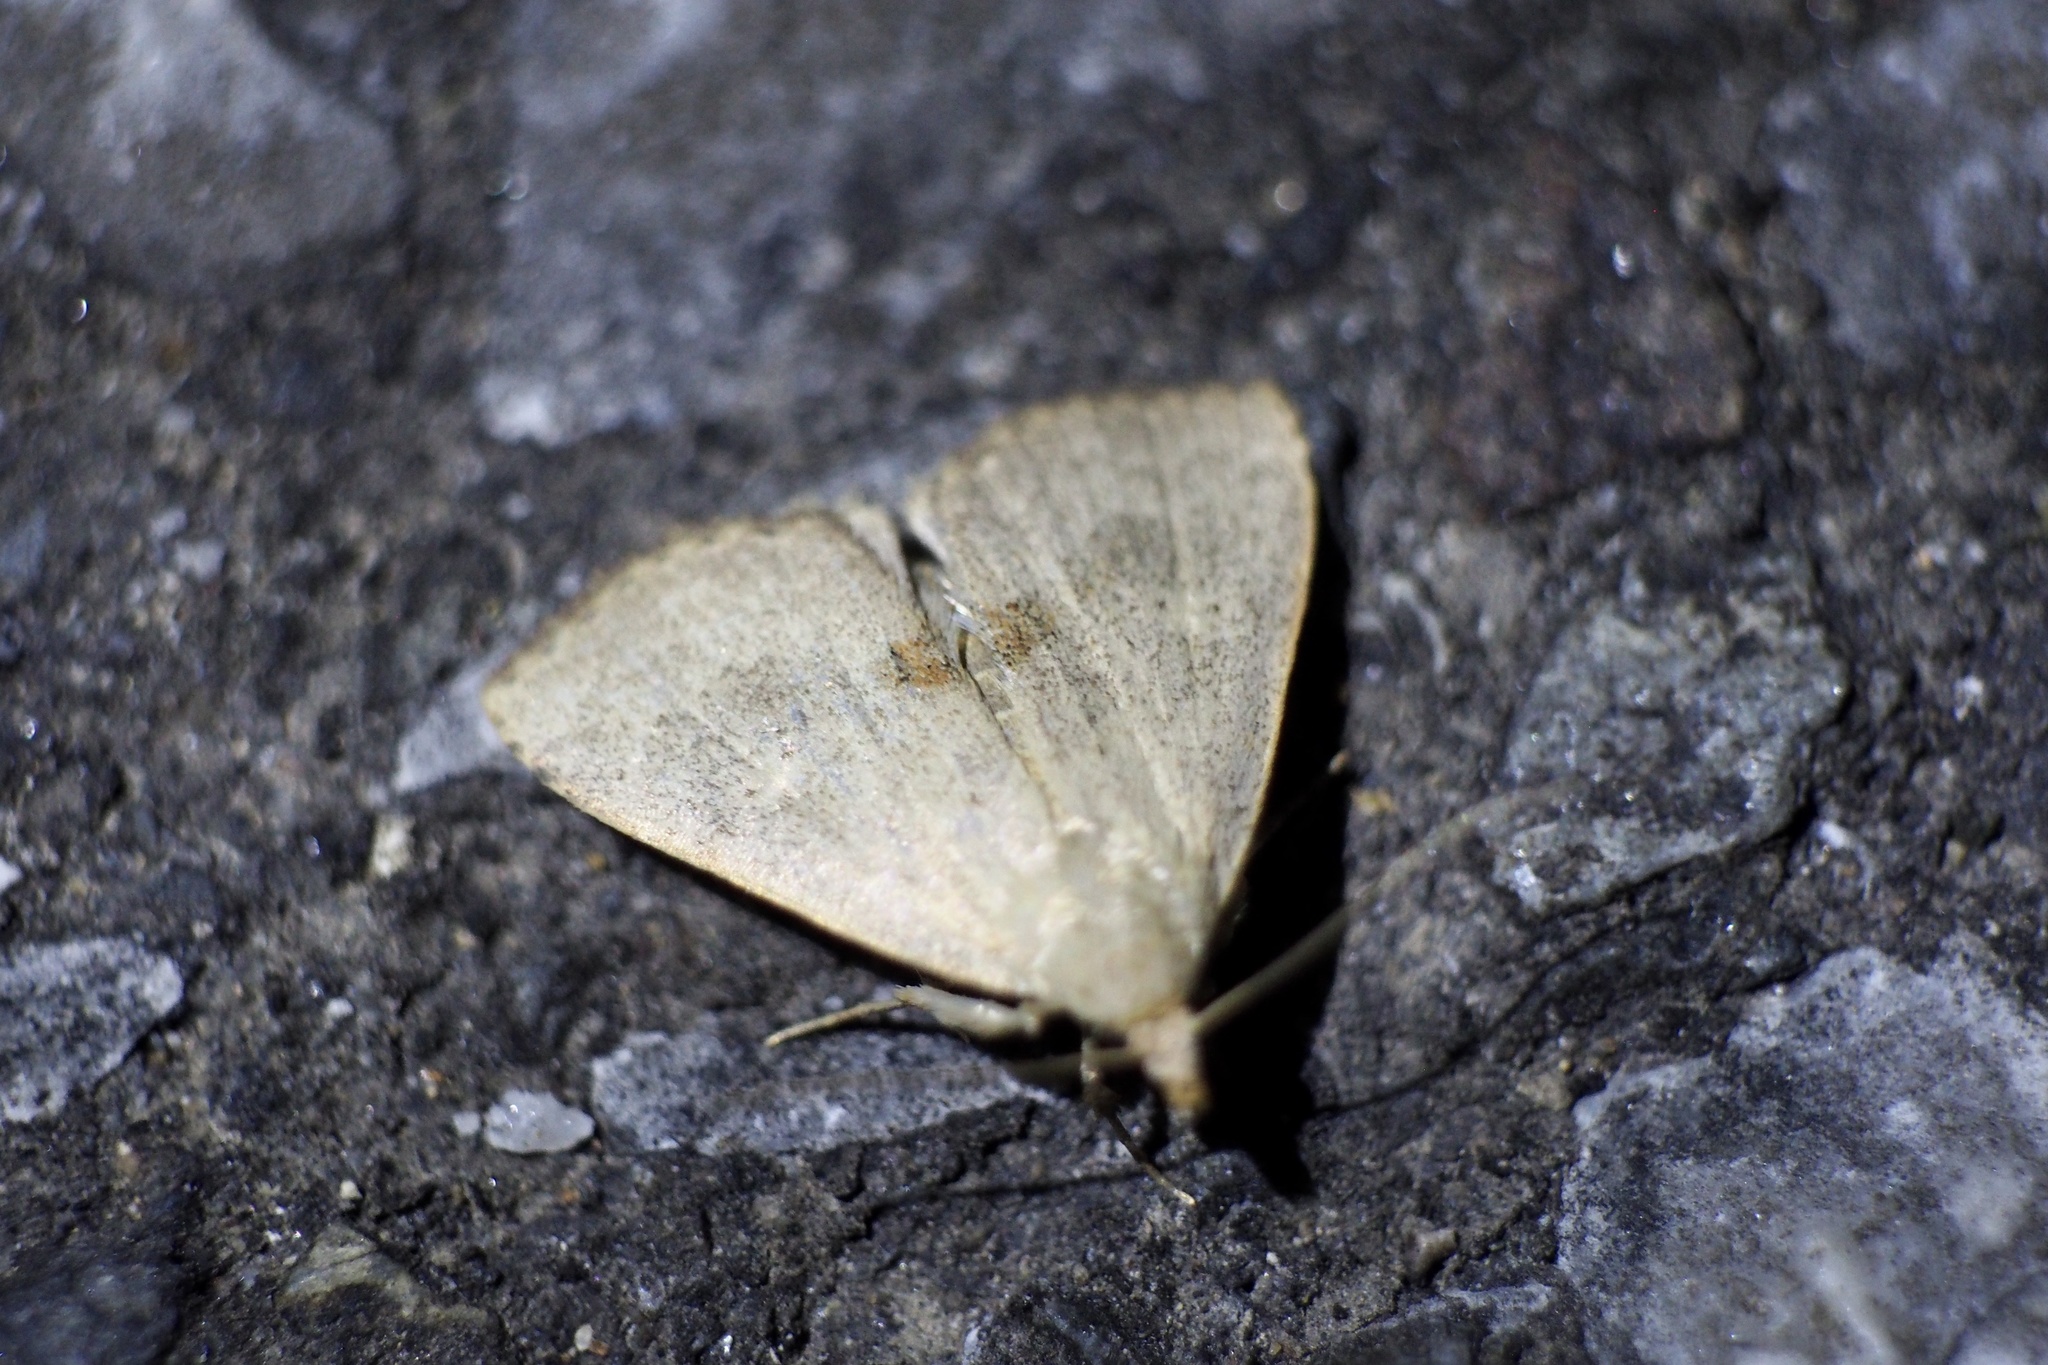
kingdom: Animalia
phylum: Arthropoda
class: Insecta
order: Lepidoptera
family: Erebidae
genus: Gesonia
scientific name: Gesonia fallax
